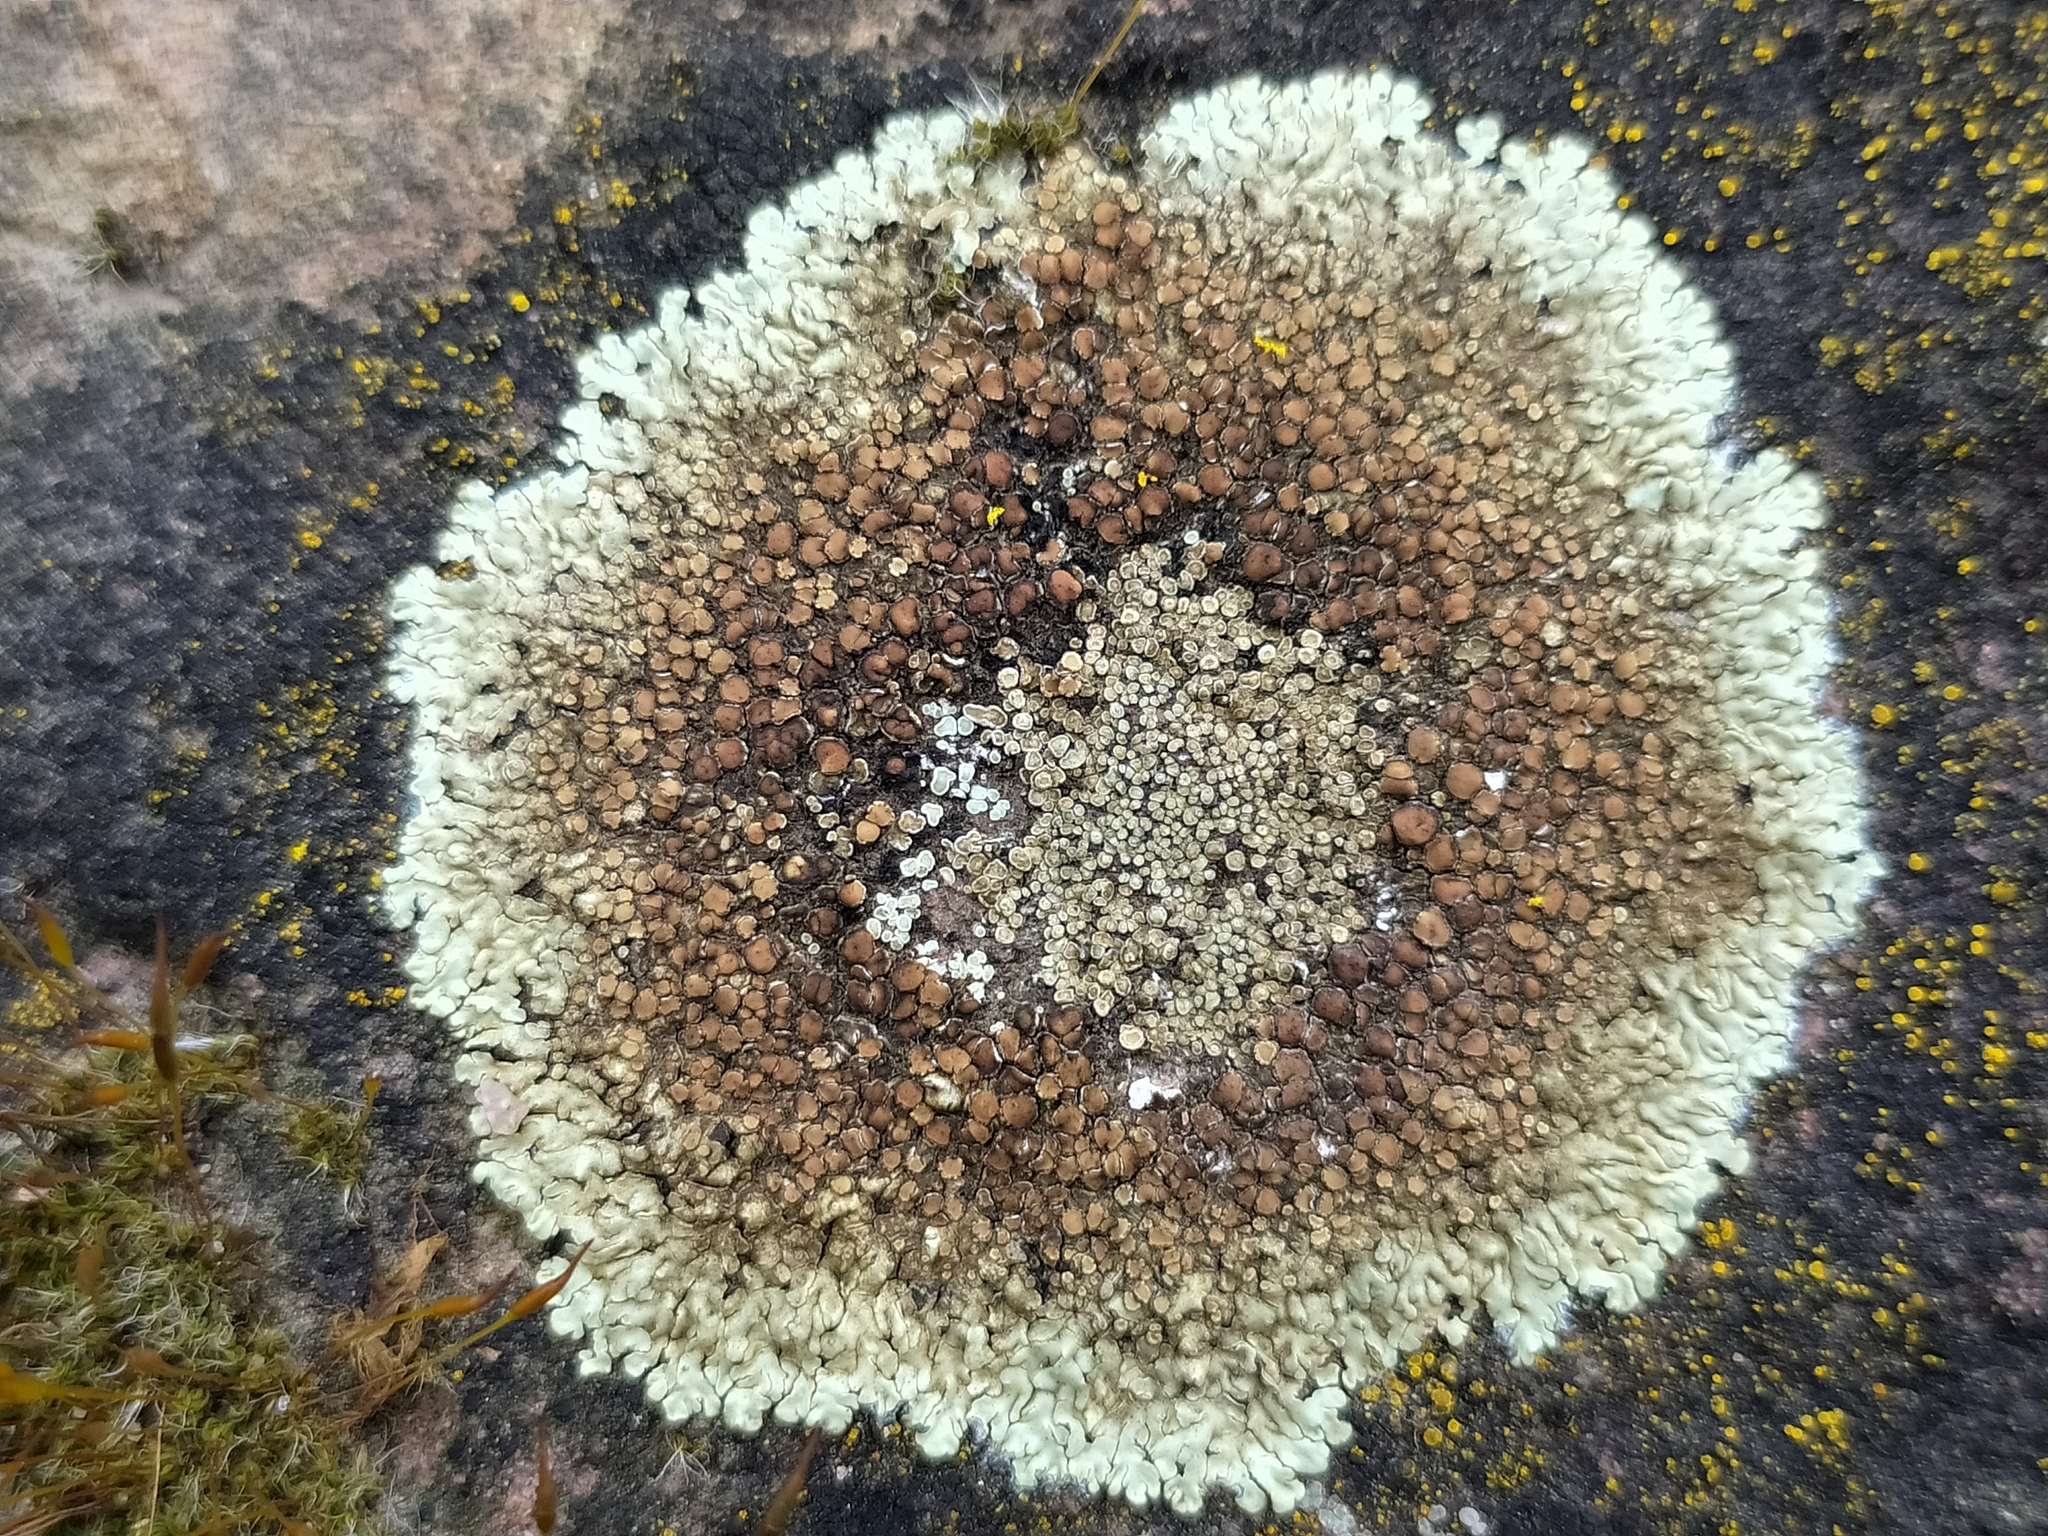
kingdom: Fungi
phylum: Ascomycota
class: Lecanoromycetes
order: Lecanorales
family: Lecanoraceae
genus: Protoparmeliopsis
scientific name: Protoparmeliopsis muralis
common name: Stonewall rim lichen
